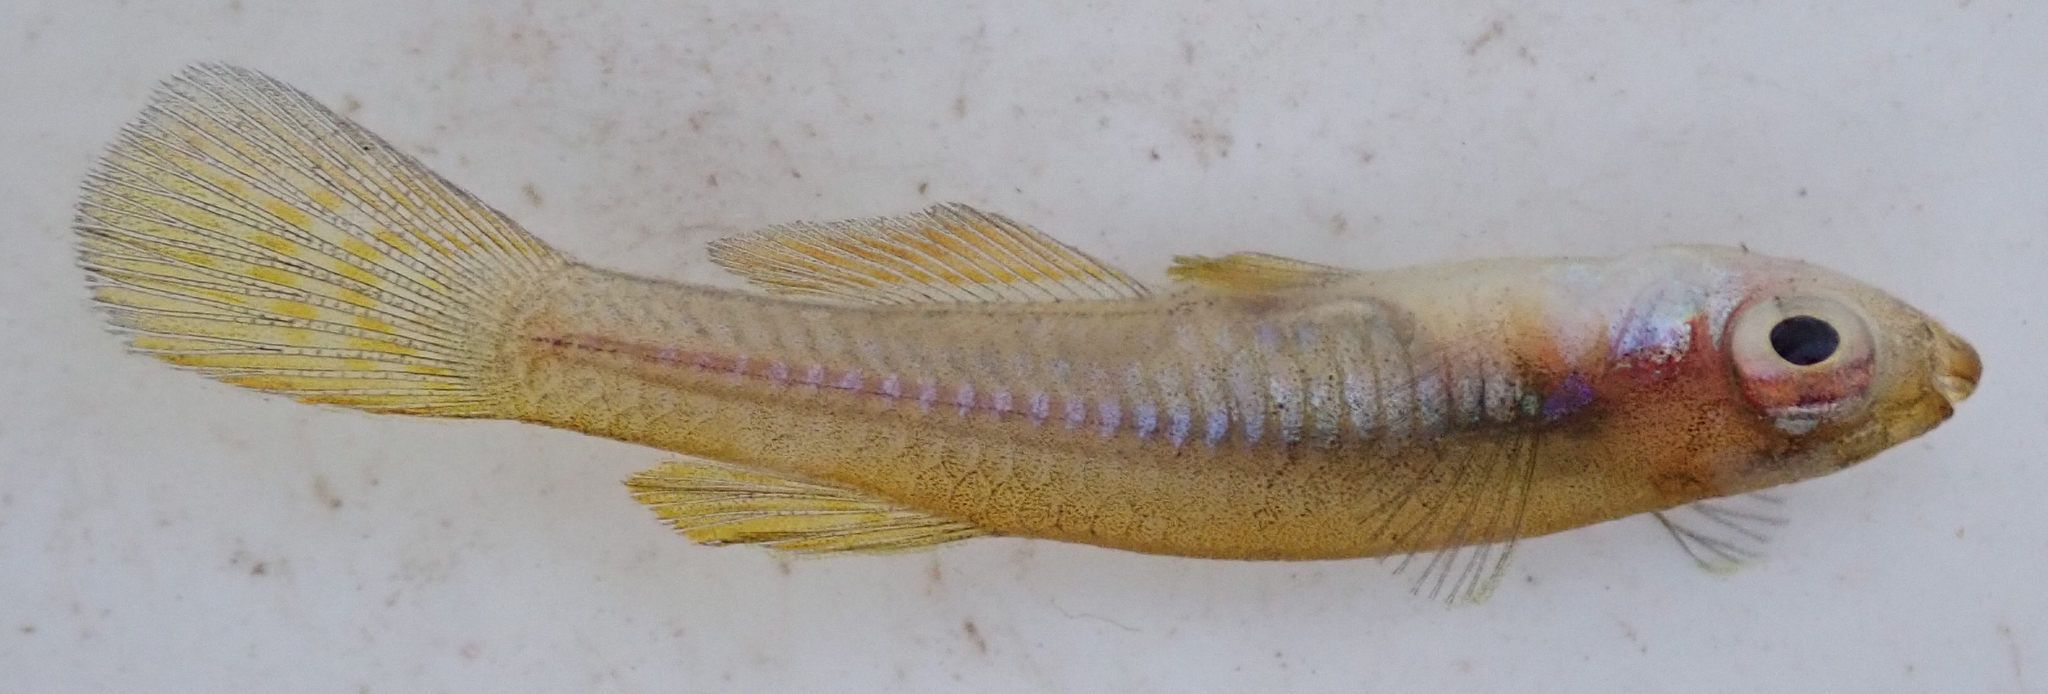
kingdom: Animalia
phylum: Chordata
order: Cyprinodontiformes
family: Poeciliidae
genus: Micropanchax
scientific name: Micropanchax johnstoni
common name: Johnston's topminnow
